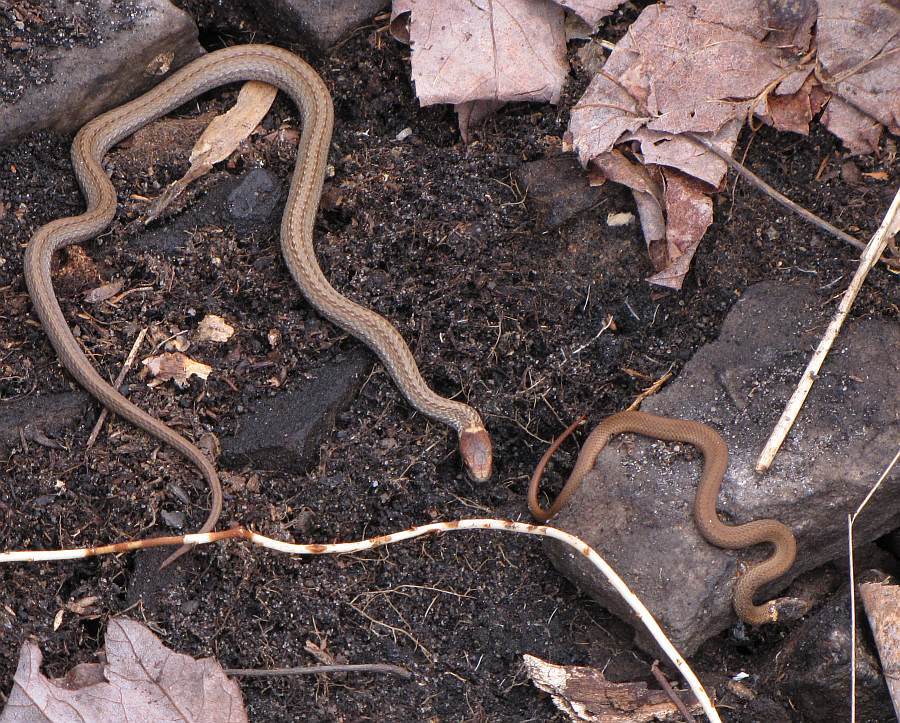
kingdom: Animalia
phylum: Chordata
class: Squamata
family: Colubridae
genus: Storeria
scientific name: Storeria occipitomaculata
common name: Redbelly snake
